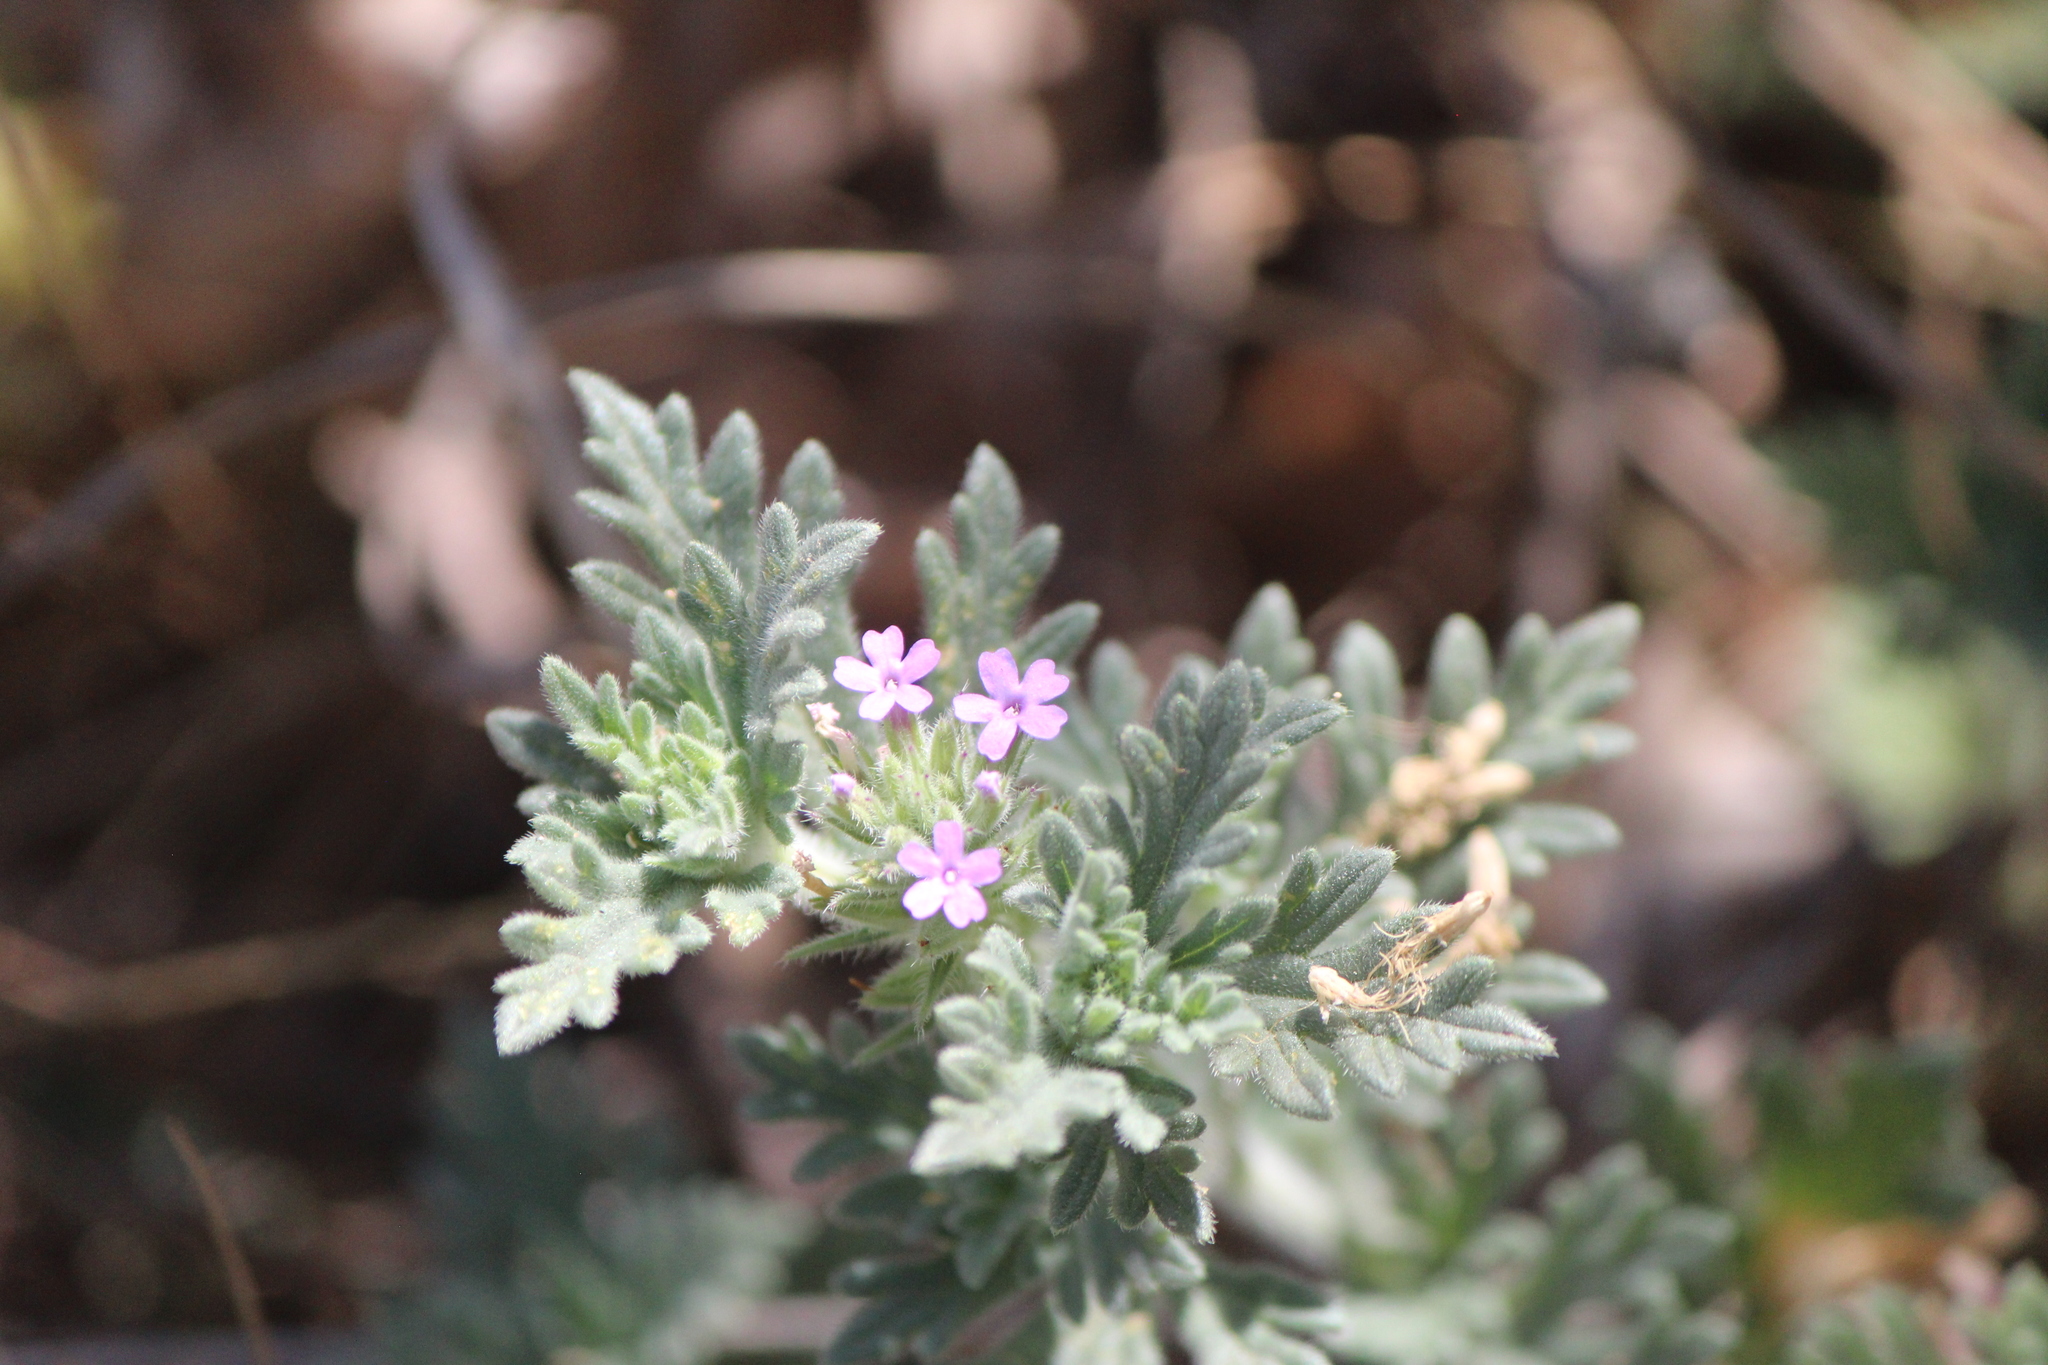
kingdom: Plantae
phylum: Tracheophyta
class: Magnoliopsida
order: Lamiales
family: Verbenaceae
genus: Verbena
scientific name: Verbena bipinnatifida
